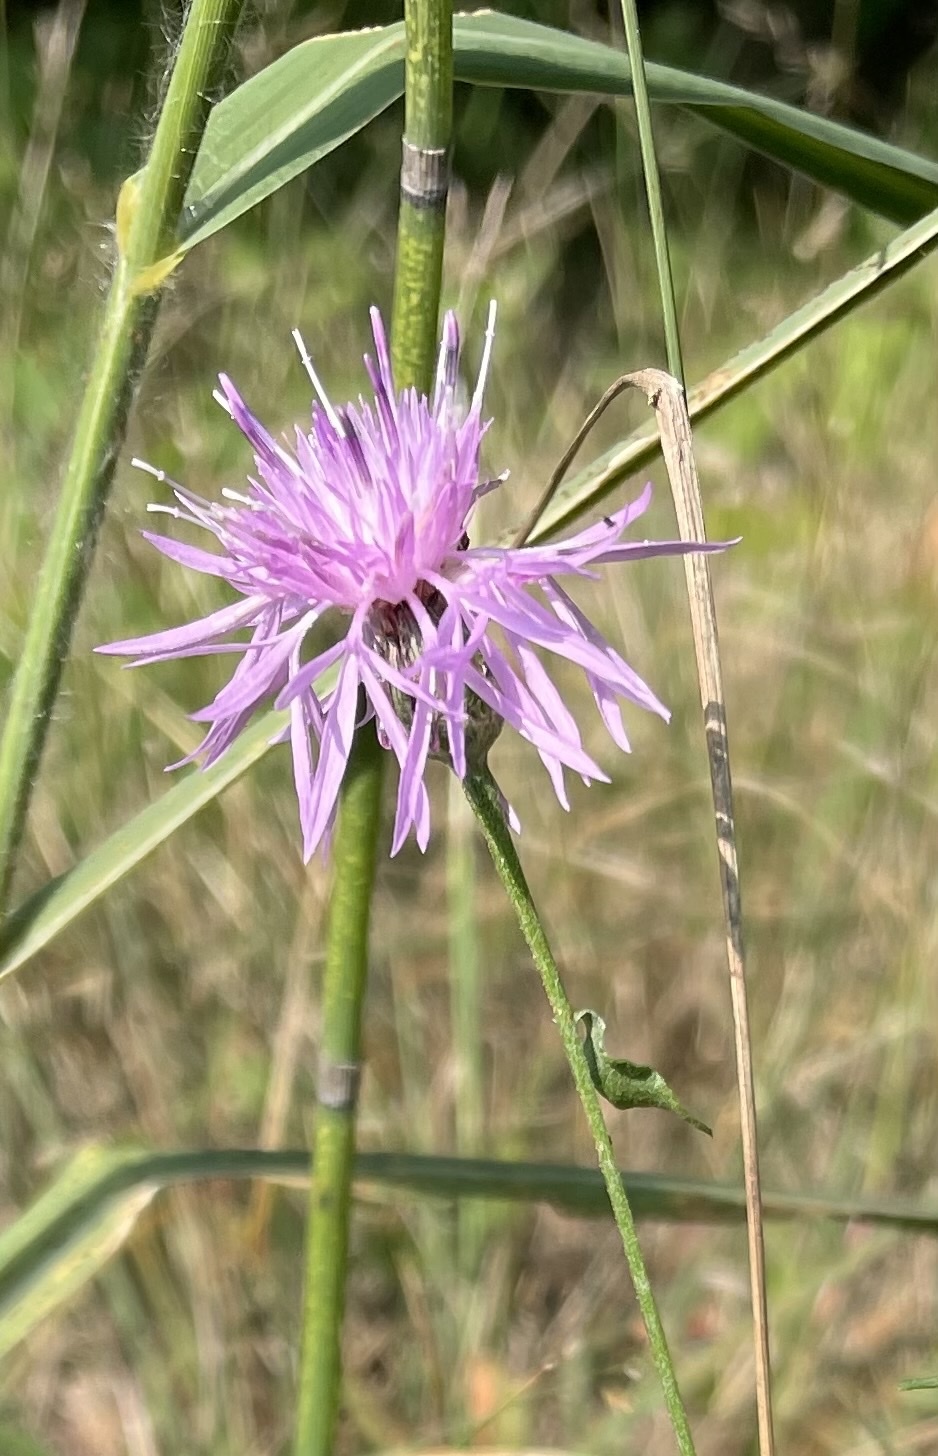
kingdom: Plantae
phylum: Tracheophyta
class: Magnoliopsida
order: Asterales
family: Asteraceae
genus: Centaurea
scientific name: Centaurea stoebe
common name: Spotted knapweed
